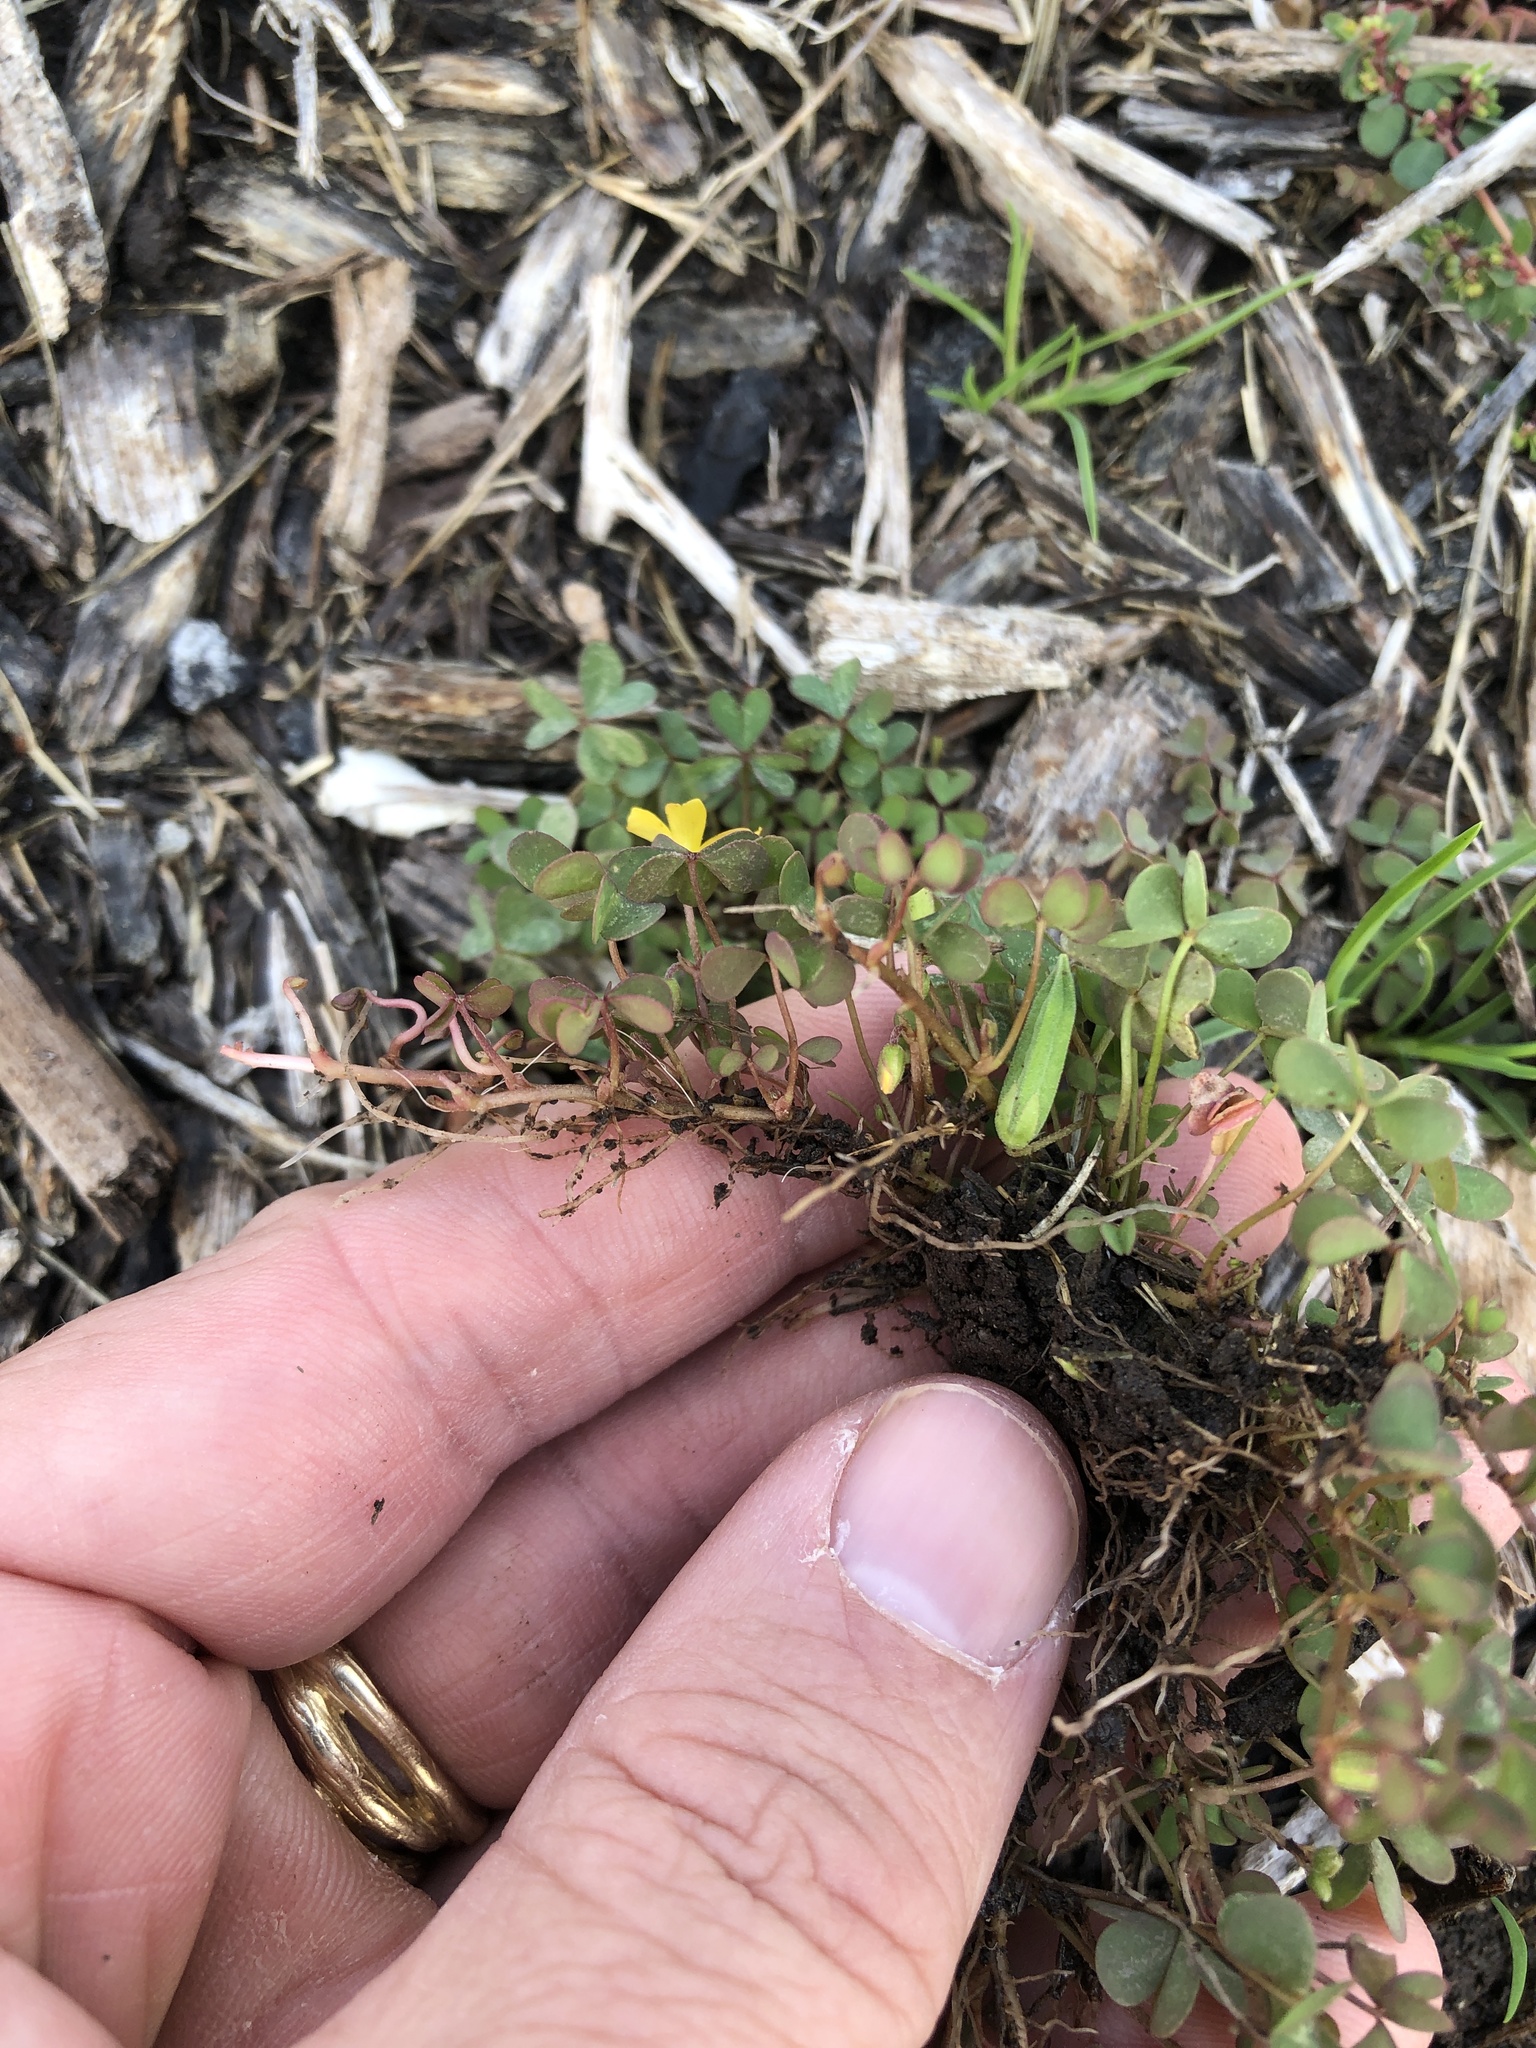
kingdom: Plantae
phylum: Tracheophyta
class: Magnoliopsida
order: Oxalidales
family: Oxalidaceae
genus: Oxalis
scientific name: Oxalis corniculata
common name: Procumbent yellow-sorrel
